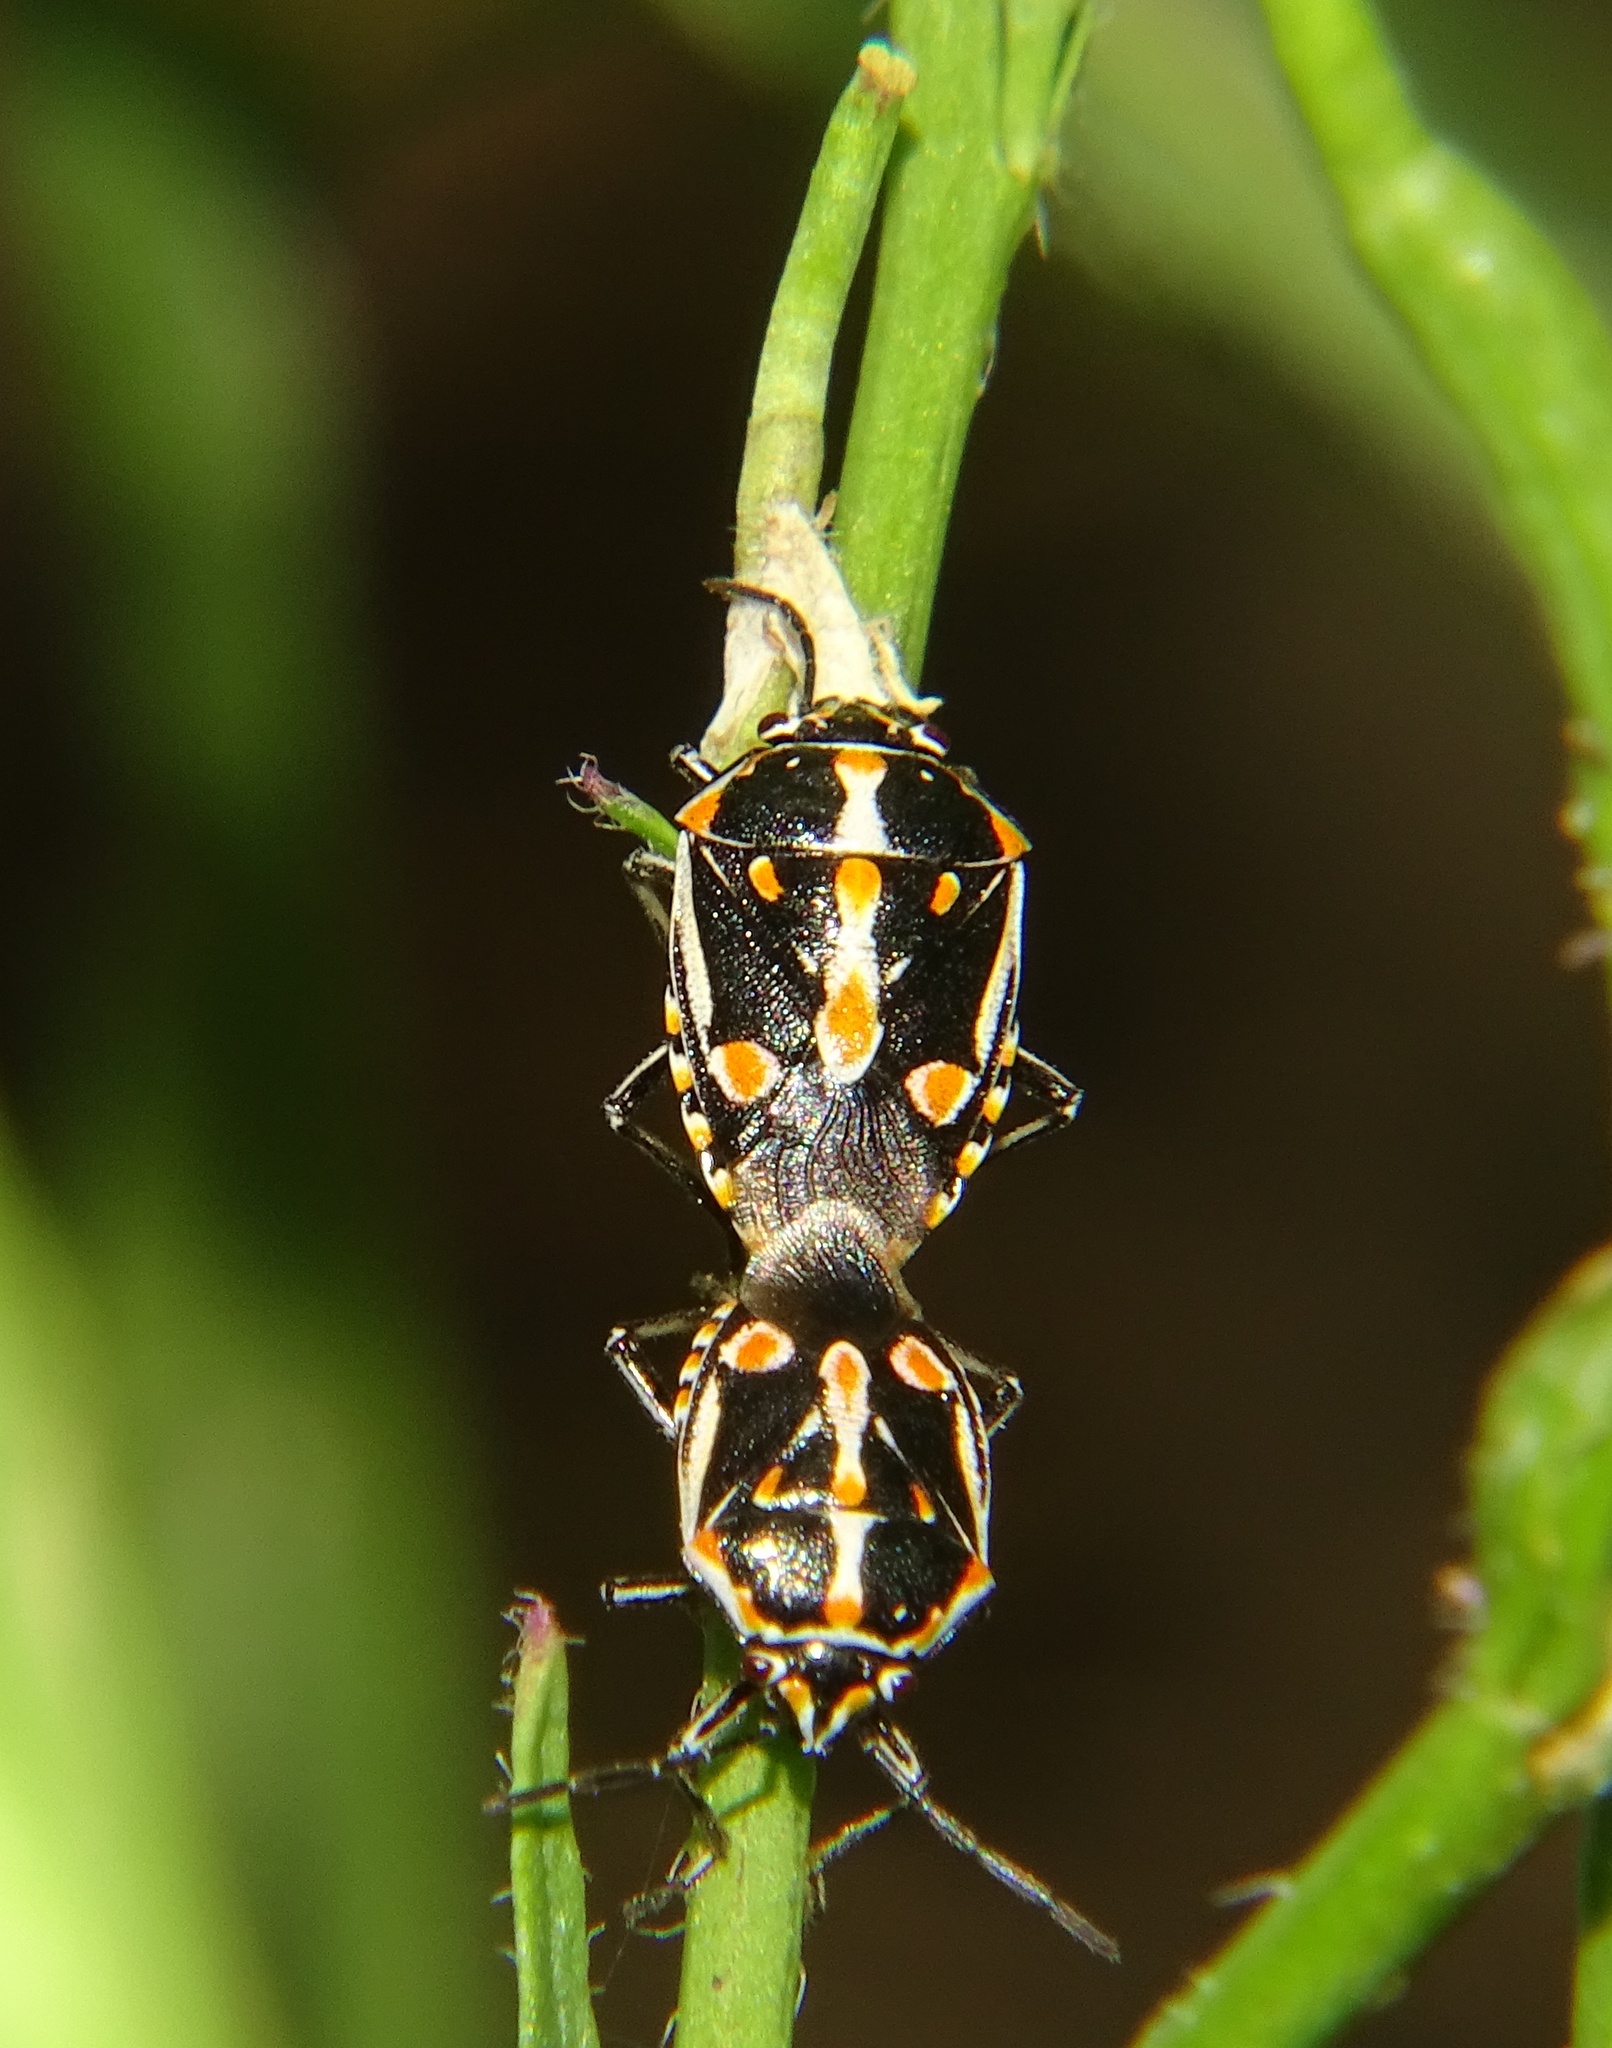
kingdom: Animalia
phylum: Arthropoda
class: Insecta
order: Hemiptera
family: Pentatomidae
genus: Bagrada
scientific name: Bagrada hilaris
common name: Bagrada bug
